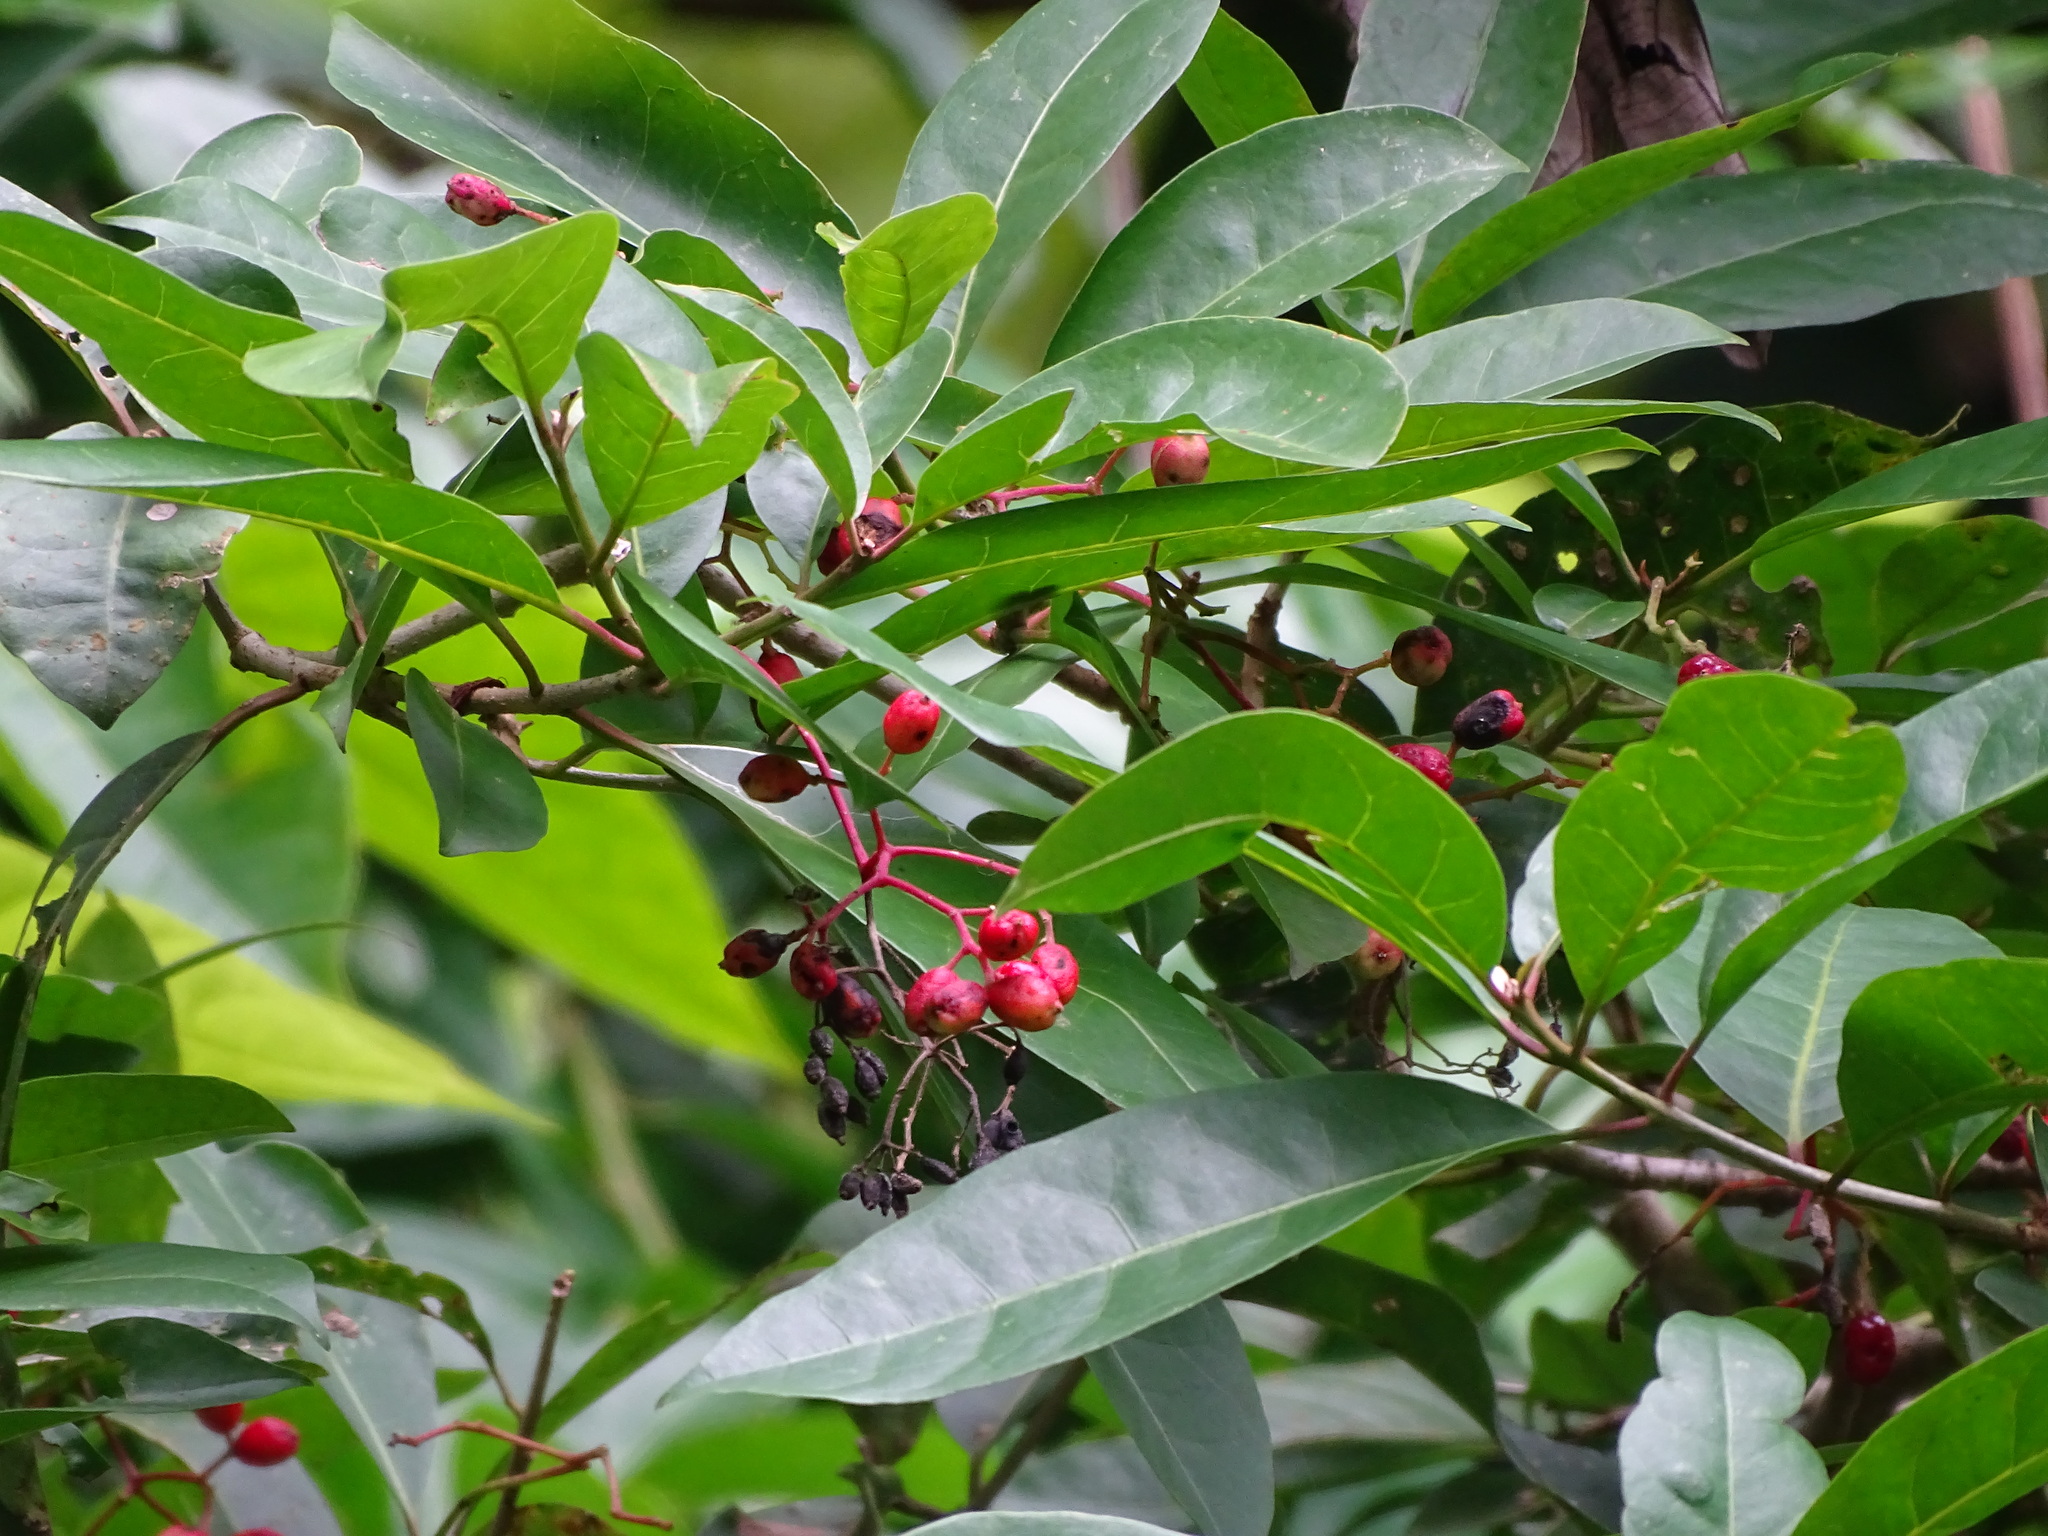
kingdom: Plantae
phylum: Tracheophyta
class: Magnoliopsida
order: Caryophyllales
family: Nyctaginaceae
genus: Neea
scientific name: Neea turbinata
